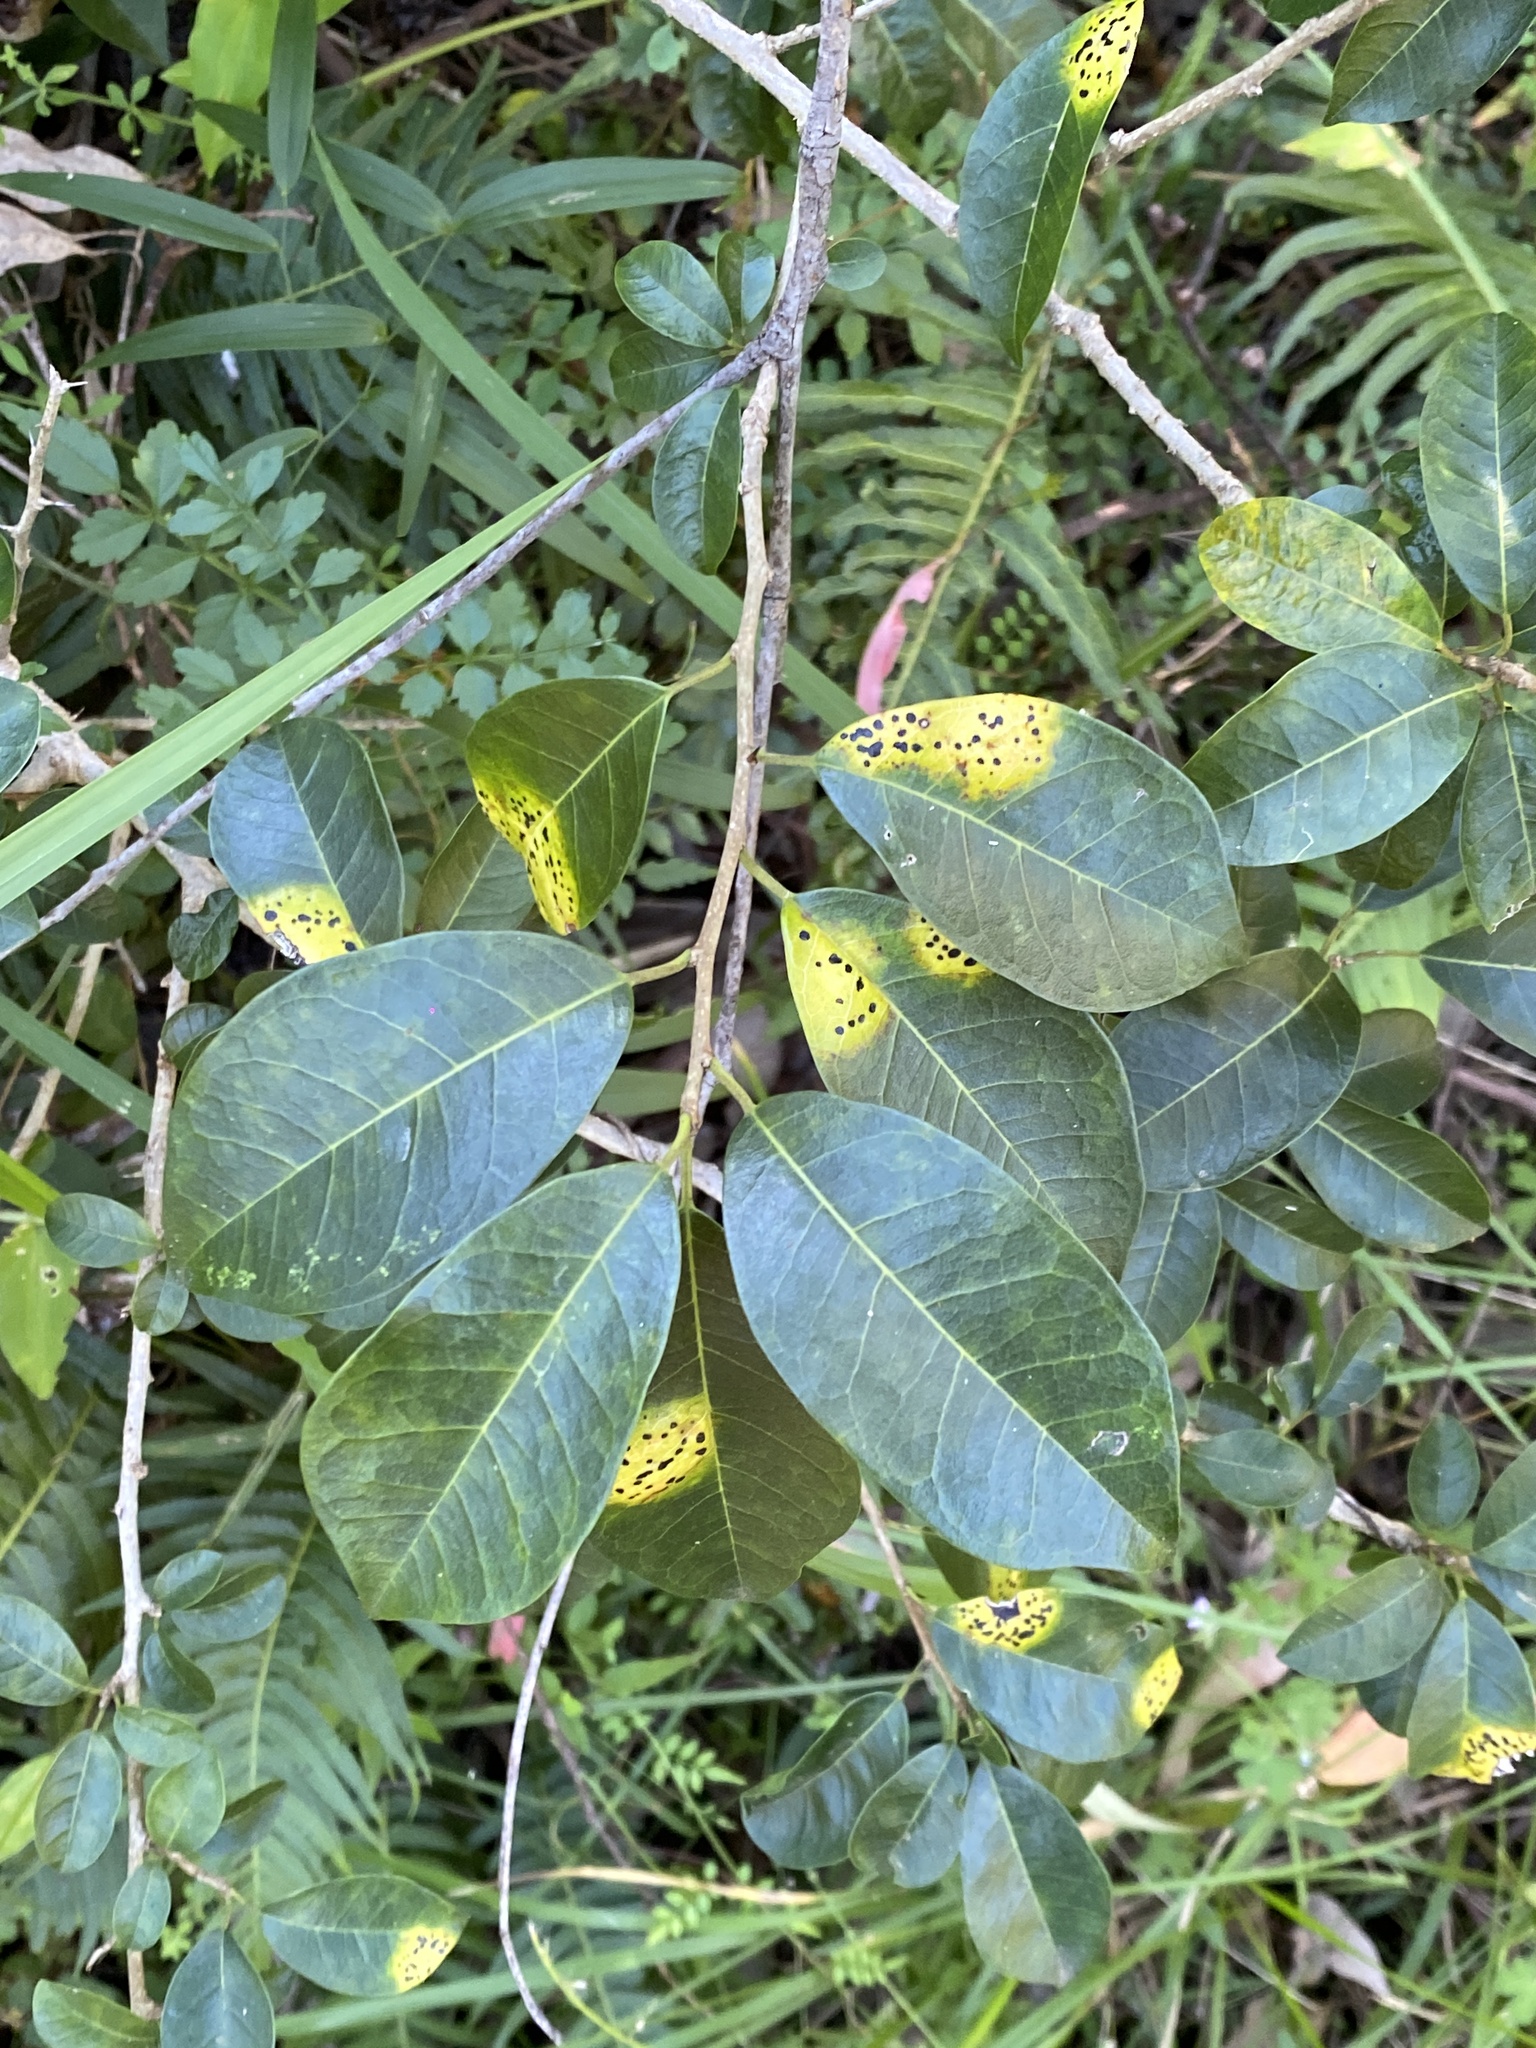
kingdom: Plantae
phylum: Tracheophyta
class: Magnoliopsida
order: Rosales
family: Moraceae
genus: Maclura
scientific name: Maclura cochinchinensis
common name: Cockspurthorn
